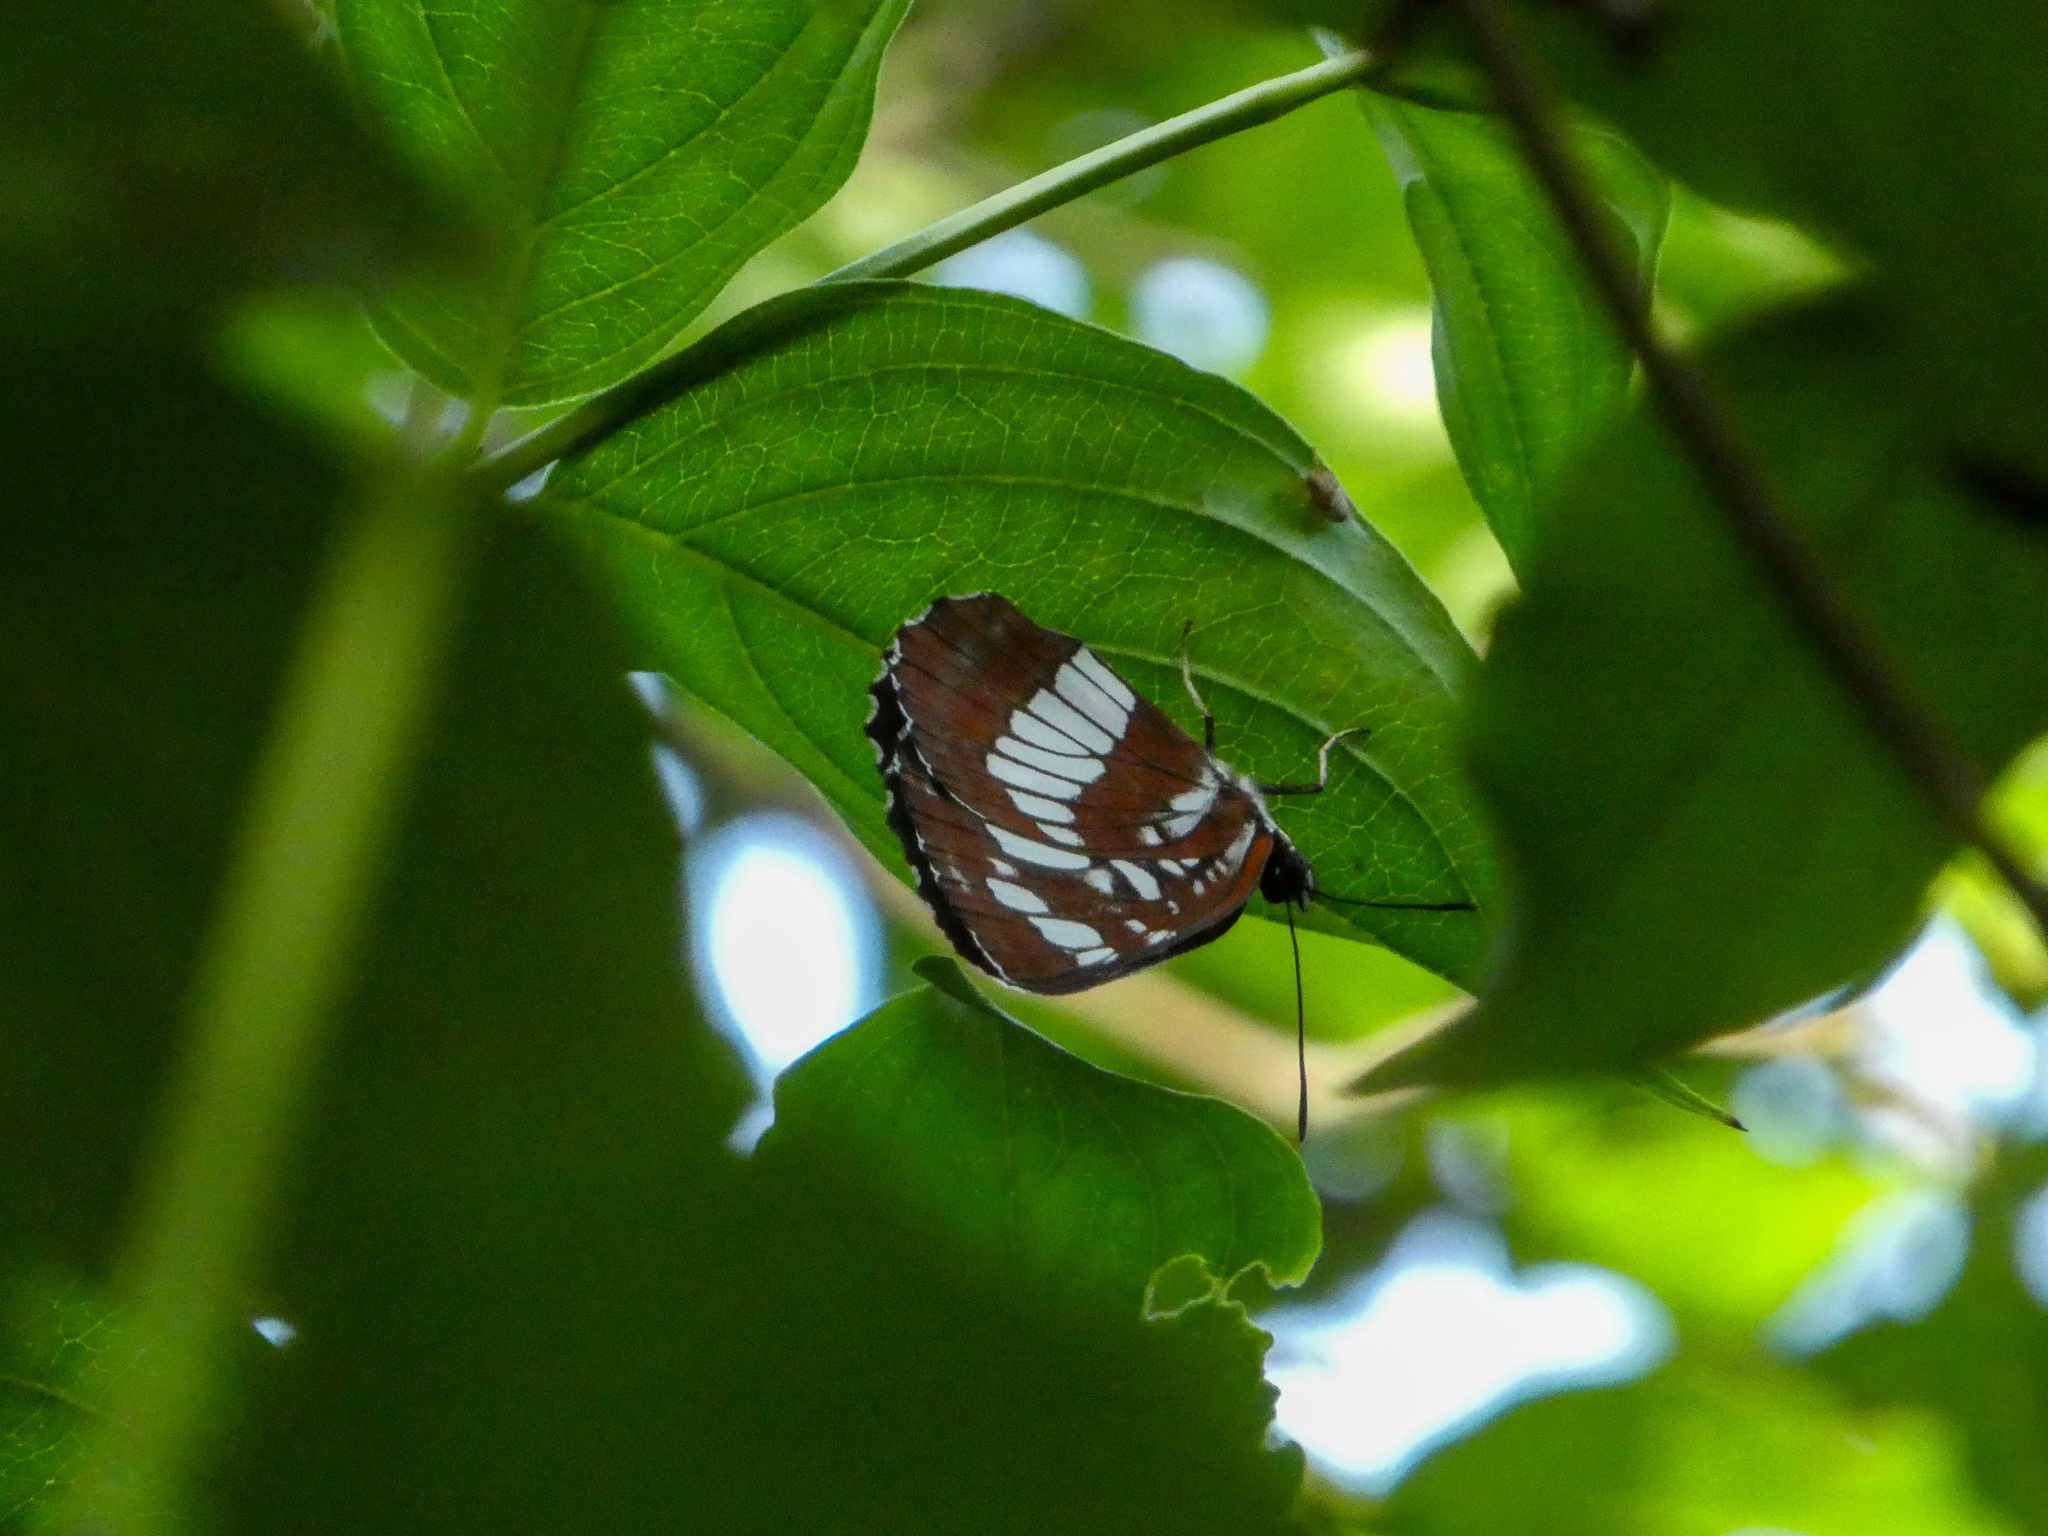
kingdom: Animalia
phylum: Arthropoda
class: Insecta
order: Lepidoptera
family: Nymphalidae
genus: Neptis
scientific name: Neptis rivularis
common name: Hungarian glider
